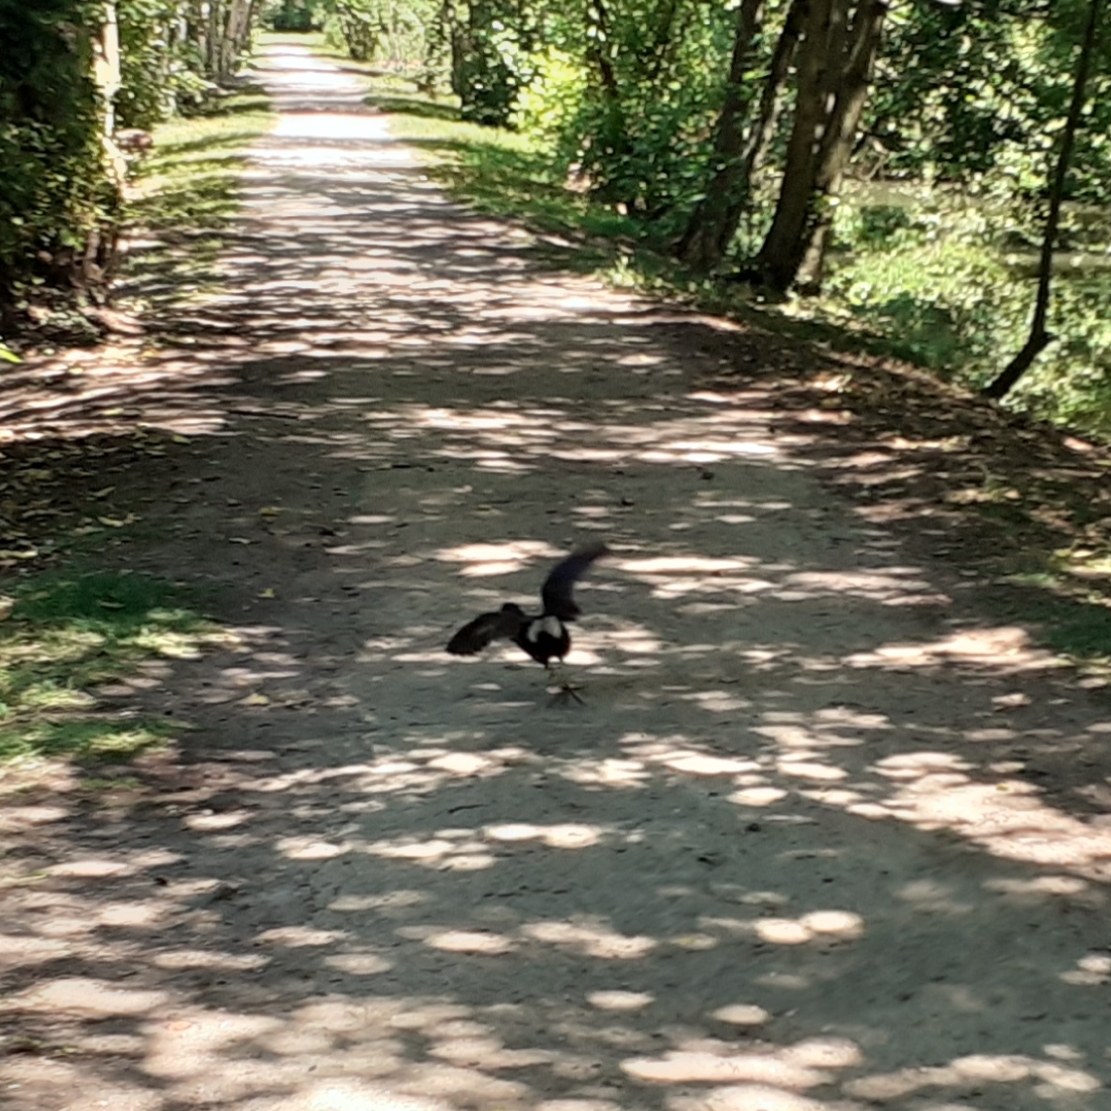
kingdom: Animalia
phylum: Chordata
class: Aves
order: Gruiformes
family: Rallidae
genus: Gallinula
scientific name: Gallinula chloropus
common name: Common moorhen
